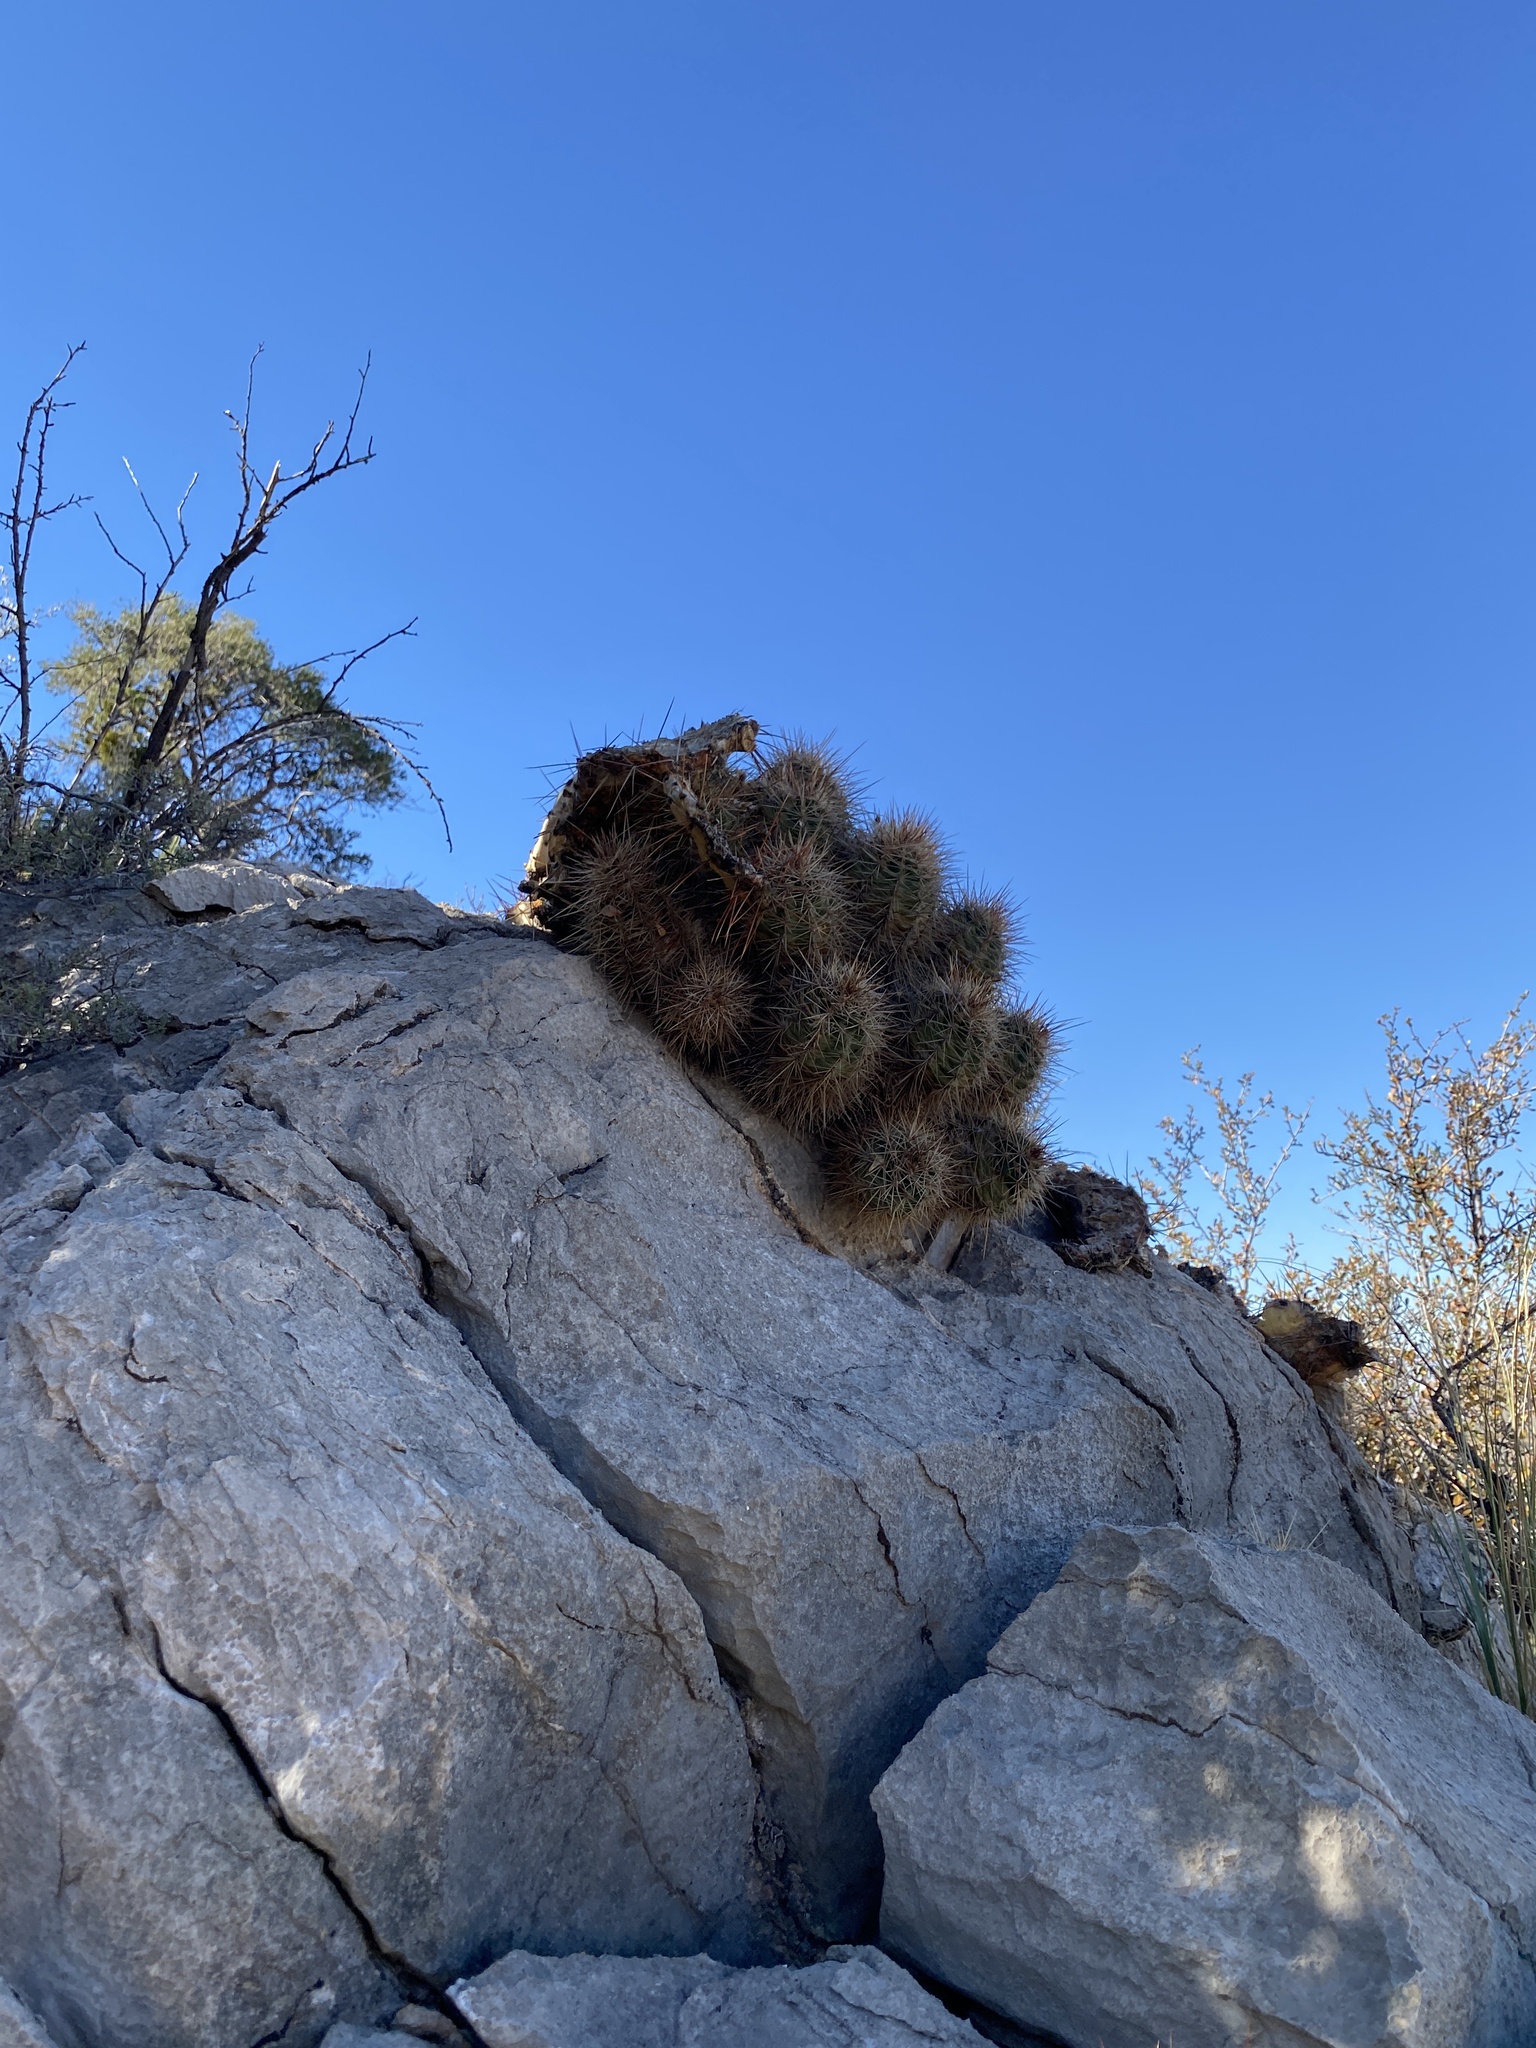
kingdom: Plantae
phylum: Tracheophyta
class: Magnoliopsida
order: Caryophyllales
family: Cactaceae
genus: Echinocereus
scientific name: Echinocereus coccineus
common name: Scarlet hedgehog cactus
